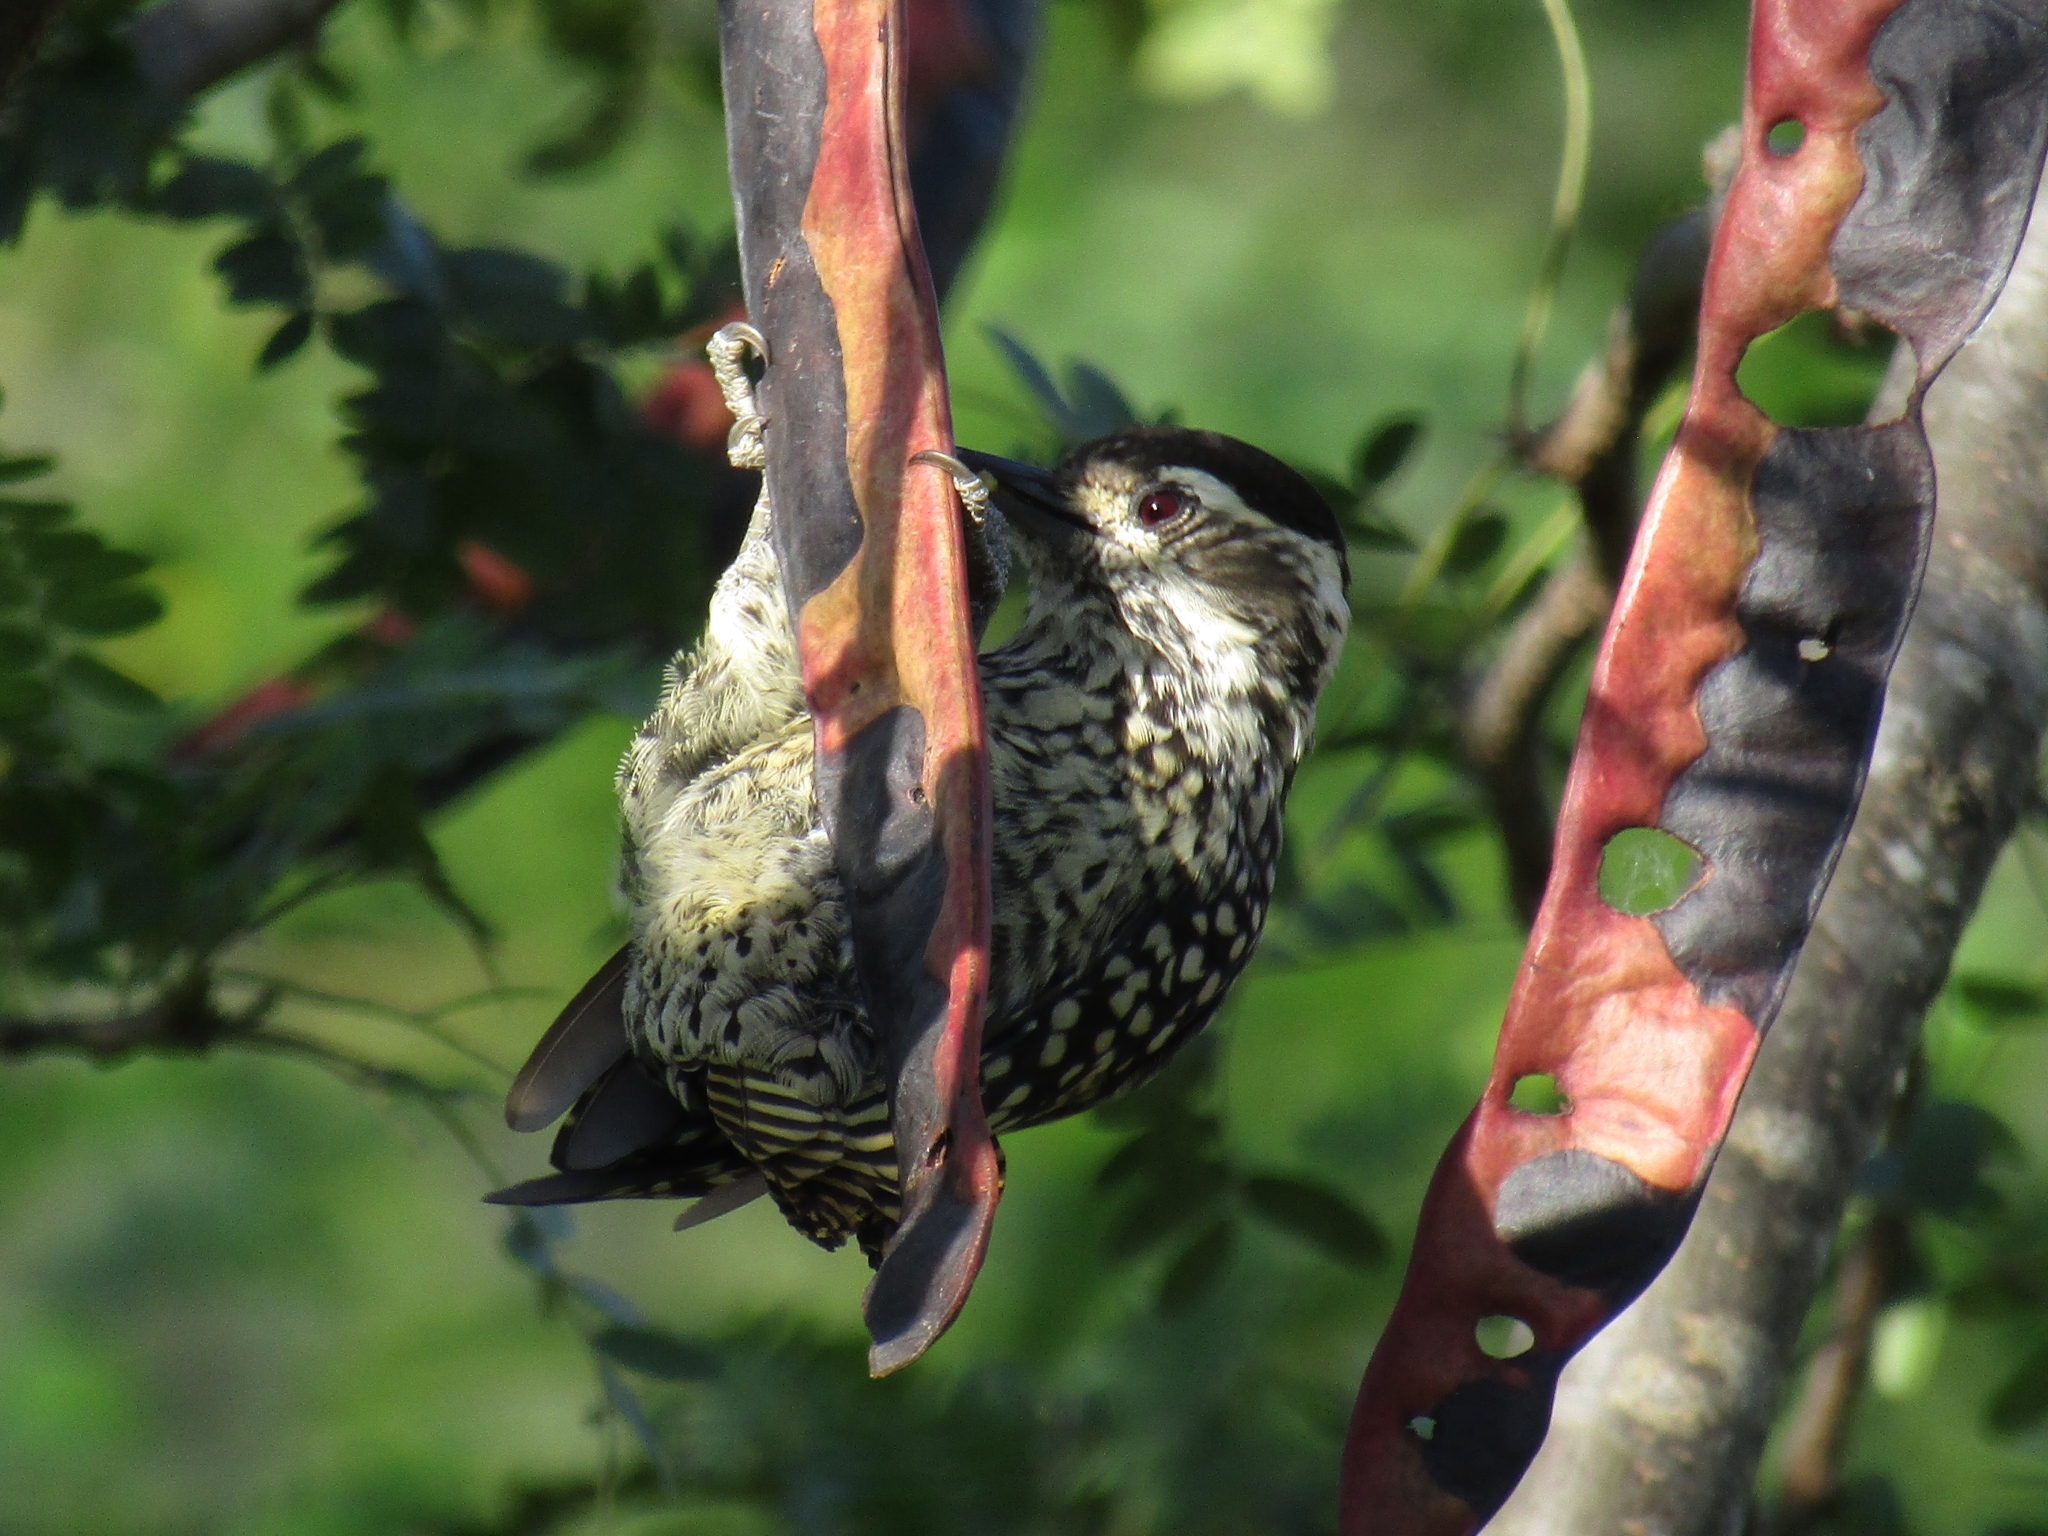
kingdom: Animalia
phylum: Chordata
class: Aves
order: Piciformes
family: Picidae
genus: Veniliornis
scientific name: Veniliornis mixtus
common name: Checkered woodpecker
